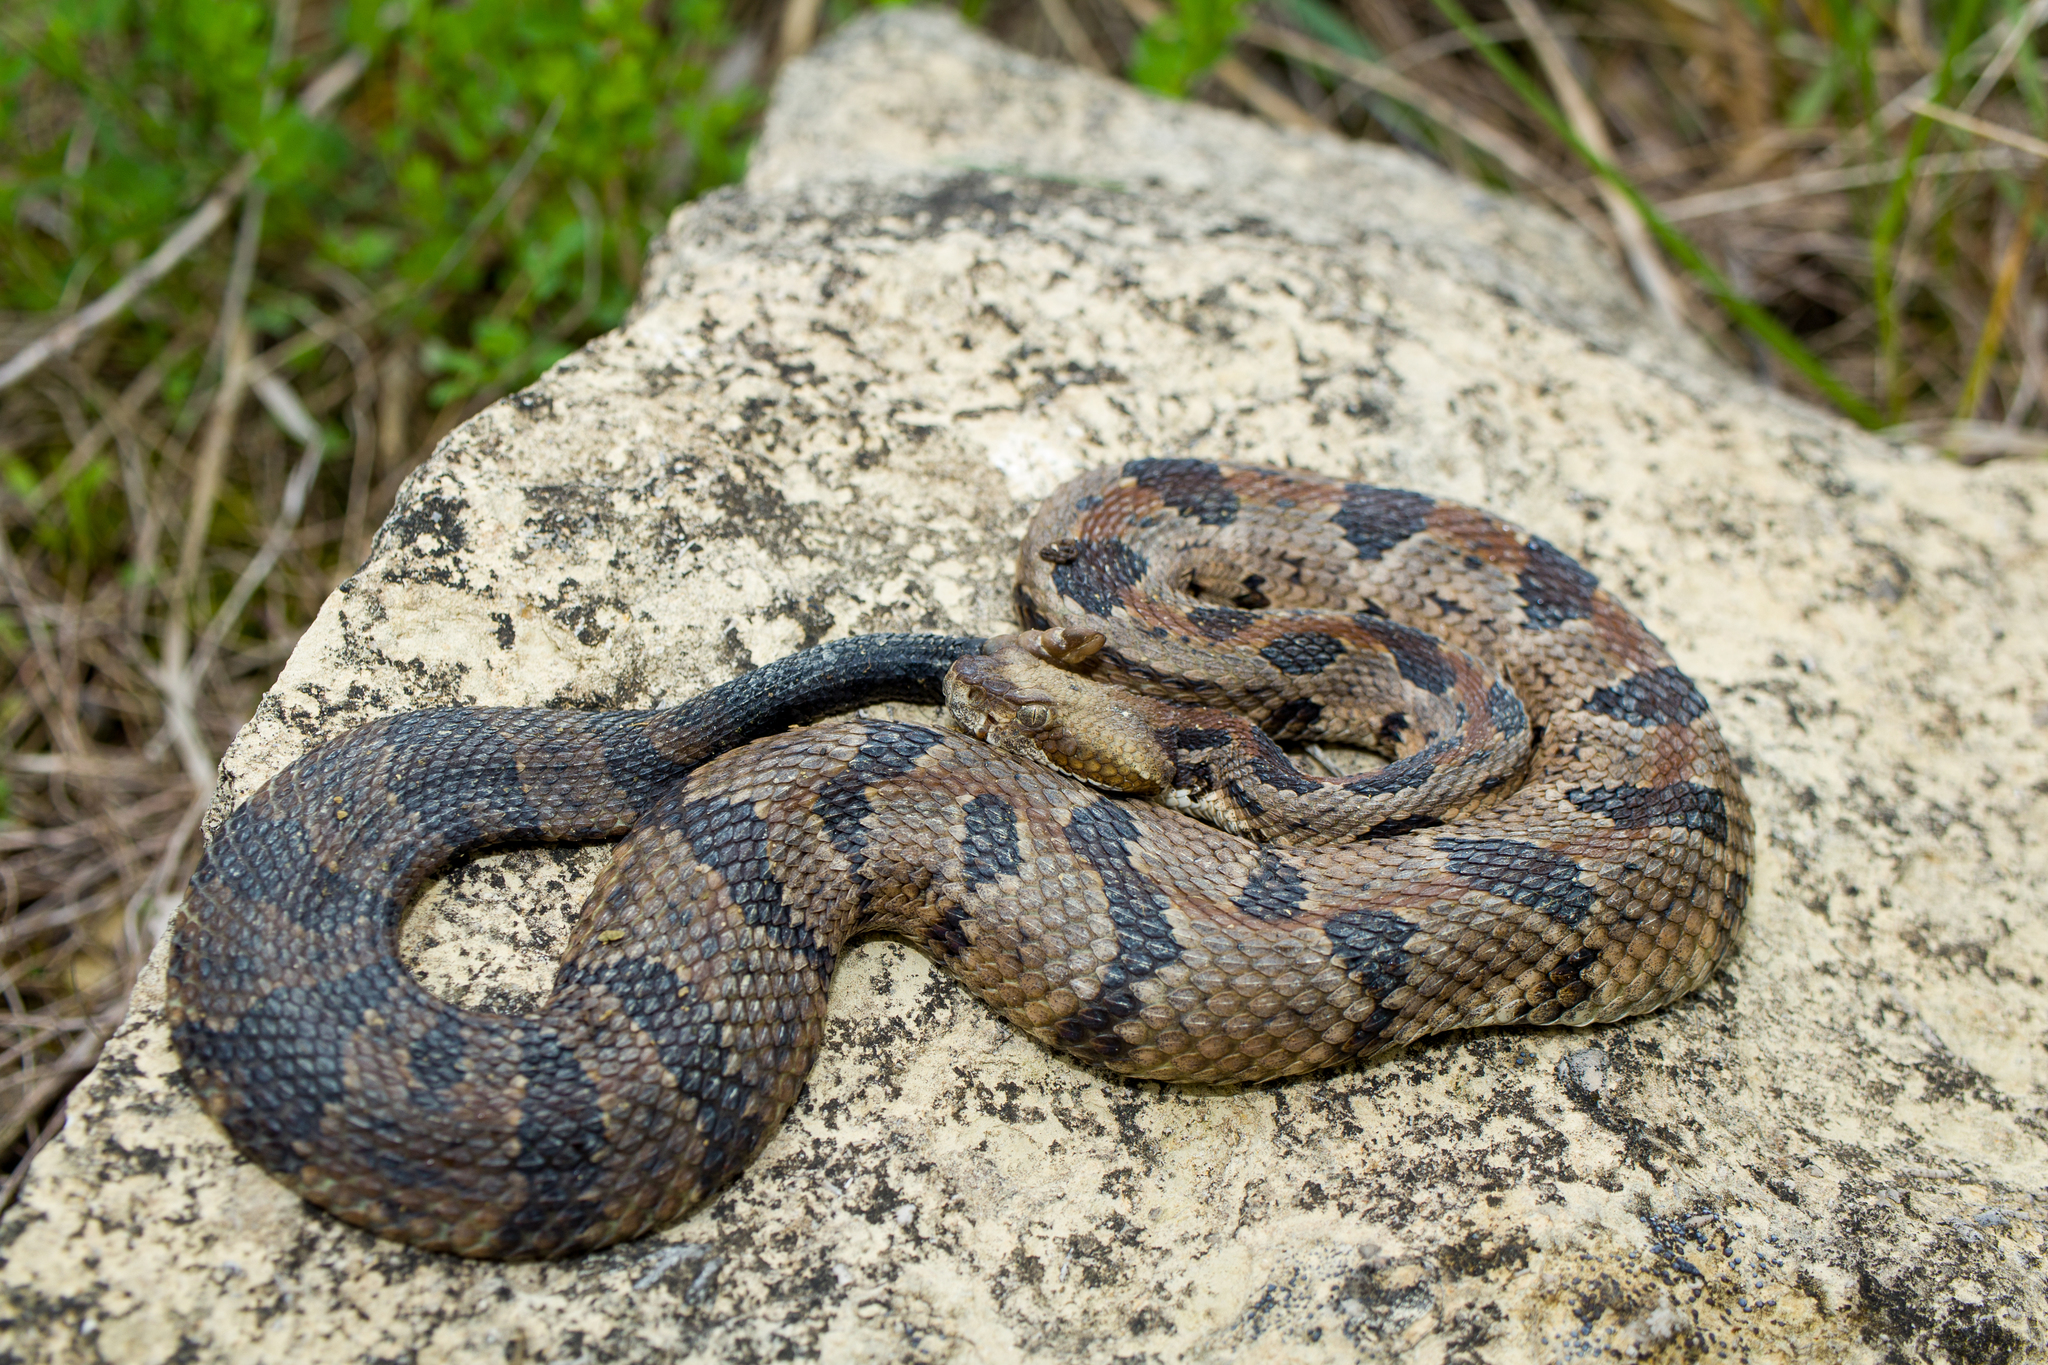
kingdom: Animalia
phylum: Chordata
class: Squamata
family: Viperidae
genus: Crotalus
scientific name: Crotalus horridus
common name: Timber rattlesnake
